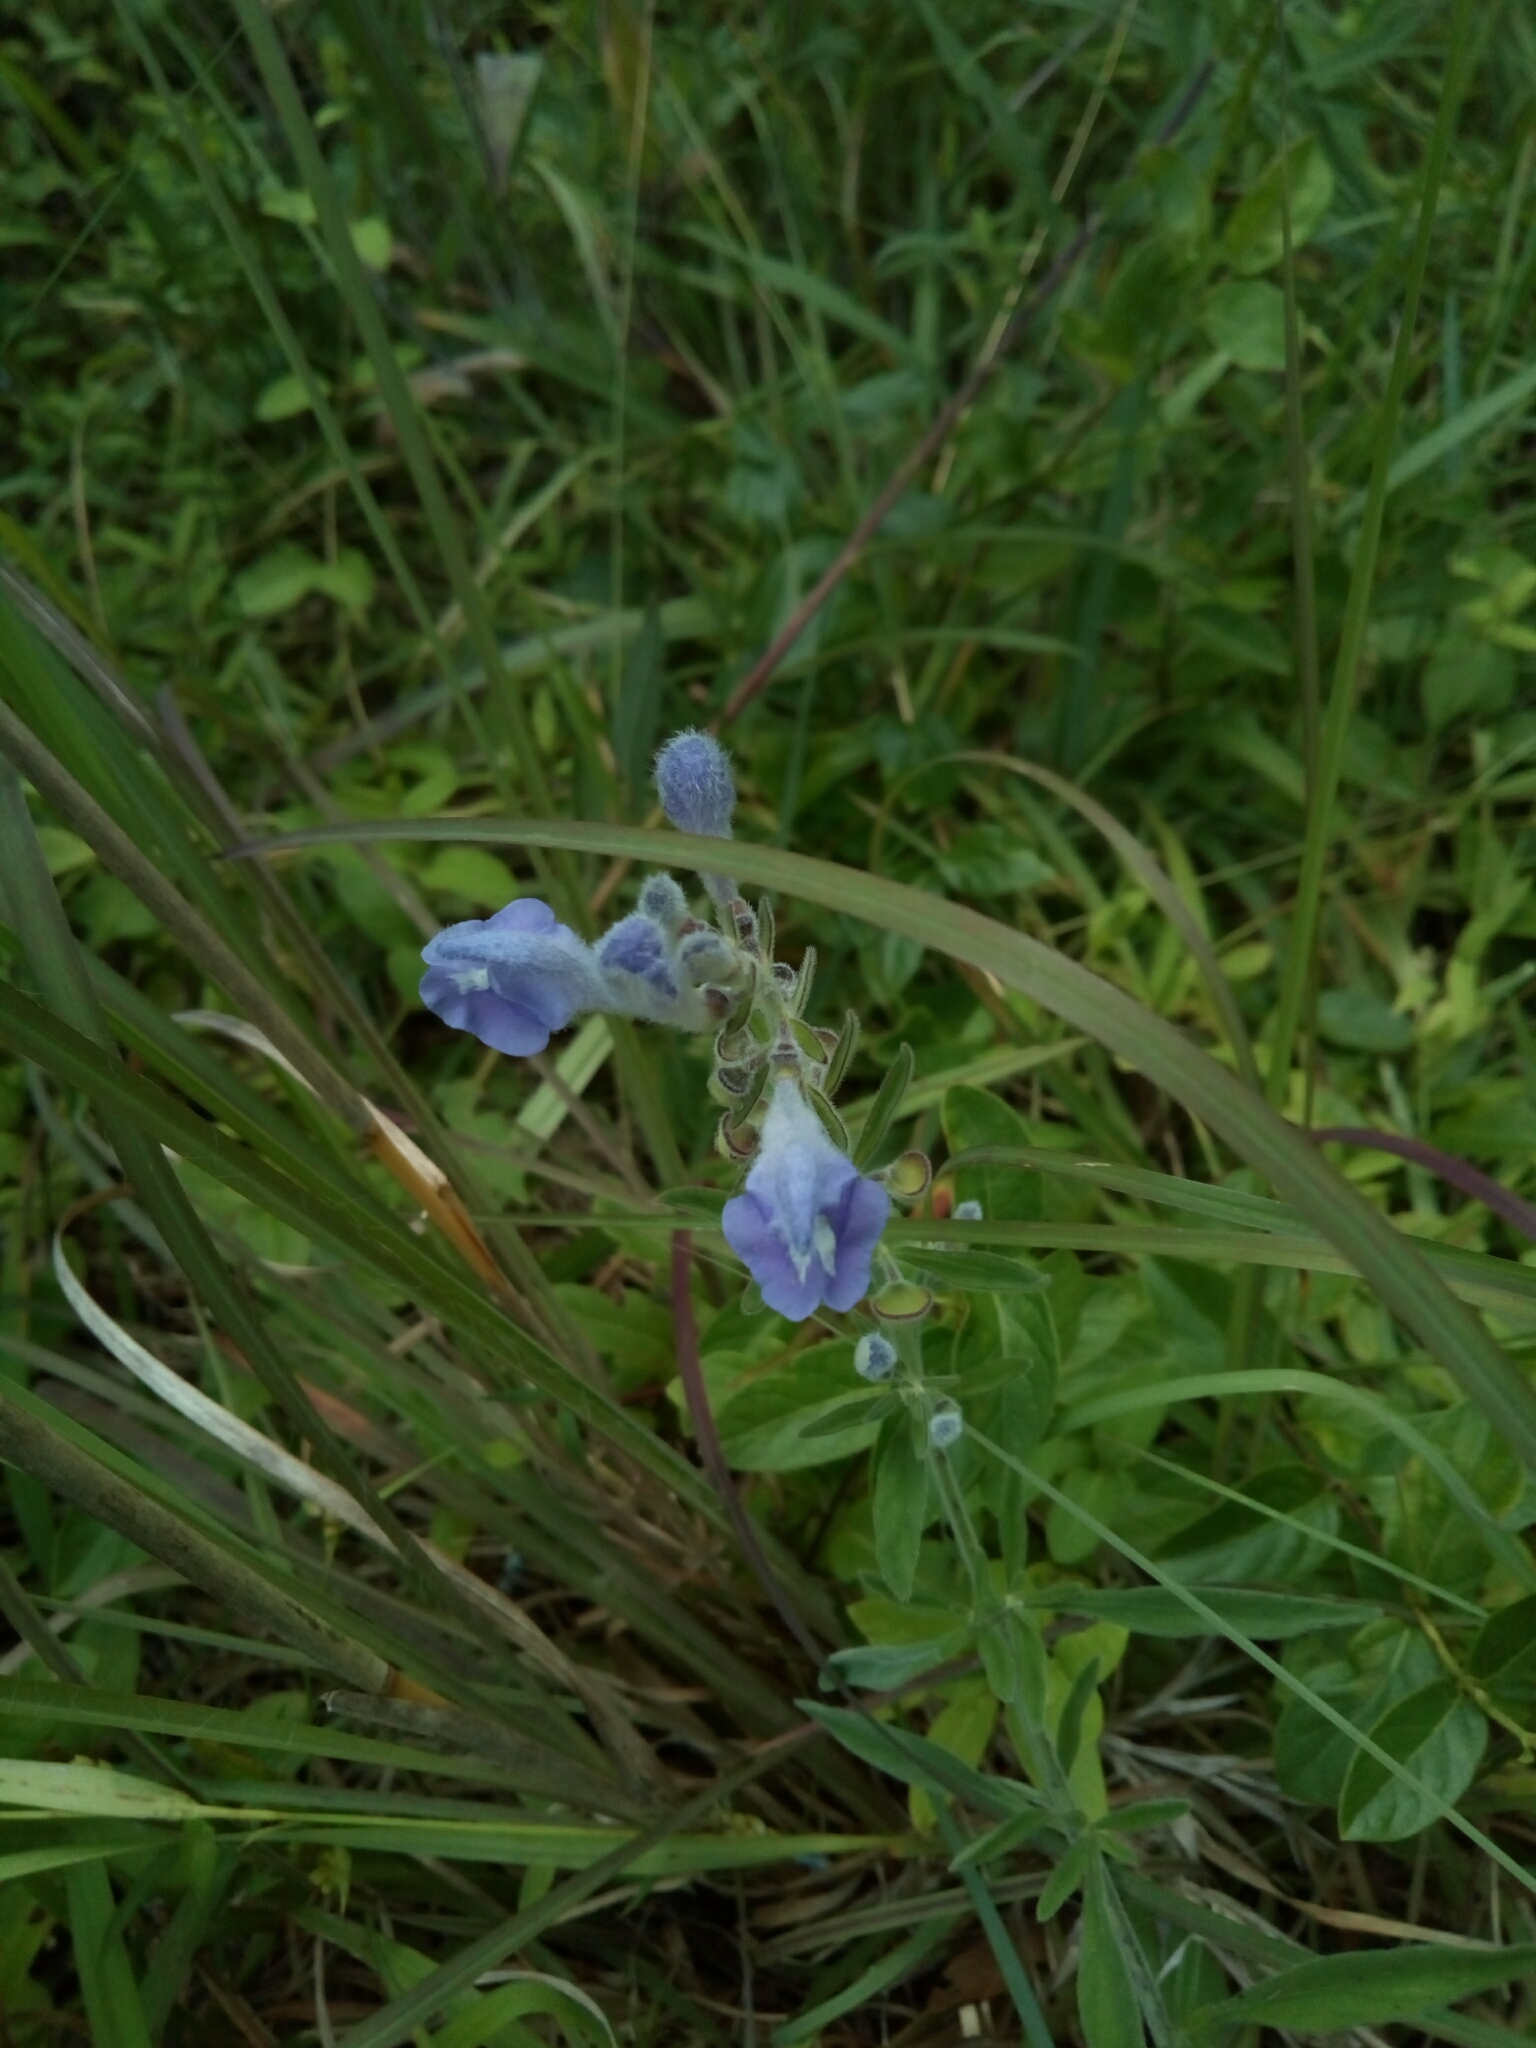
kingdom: Plantae
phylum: Tracheophyta
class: Magnoliopsida
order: Lamiales
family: Lamiaceae
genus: Scutellaria
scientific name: Scutellaria integrifolia
